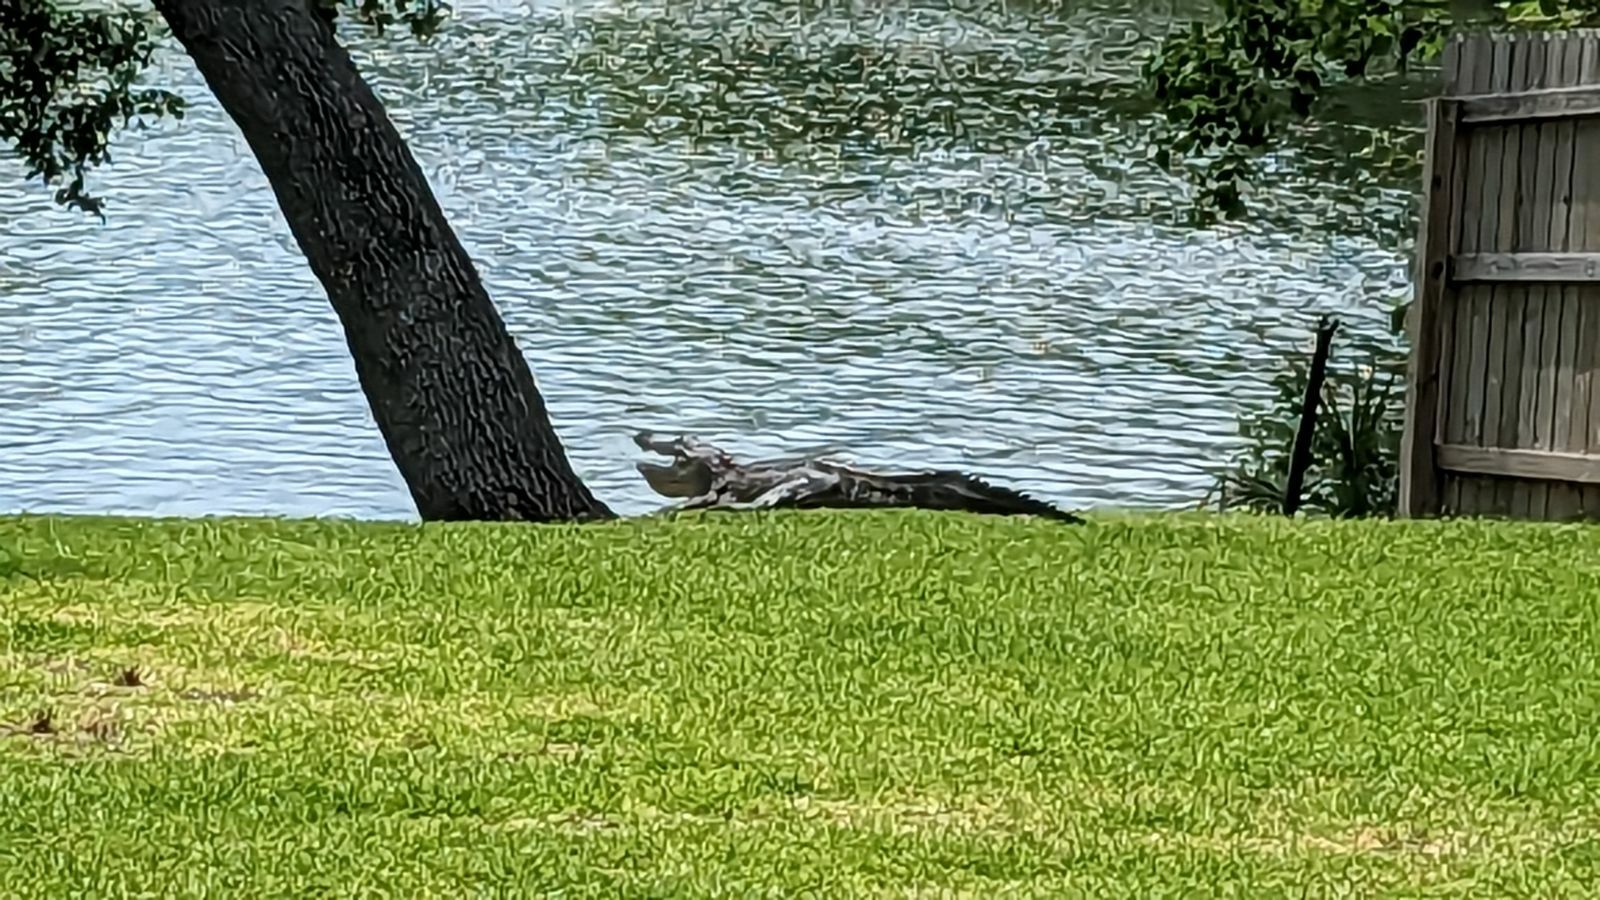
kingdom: Animalia
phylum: Chordata
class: Crocodylia
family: Alligatoridae
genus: Alligator
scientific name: Alligator mississippiensis
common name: American alligator
